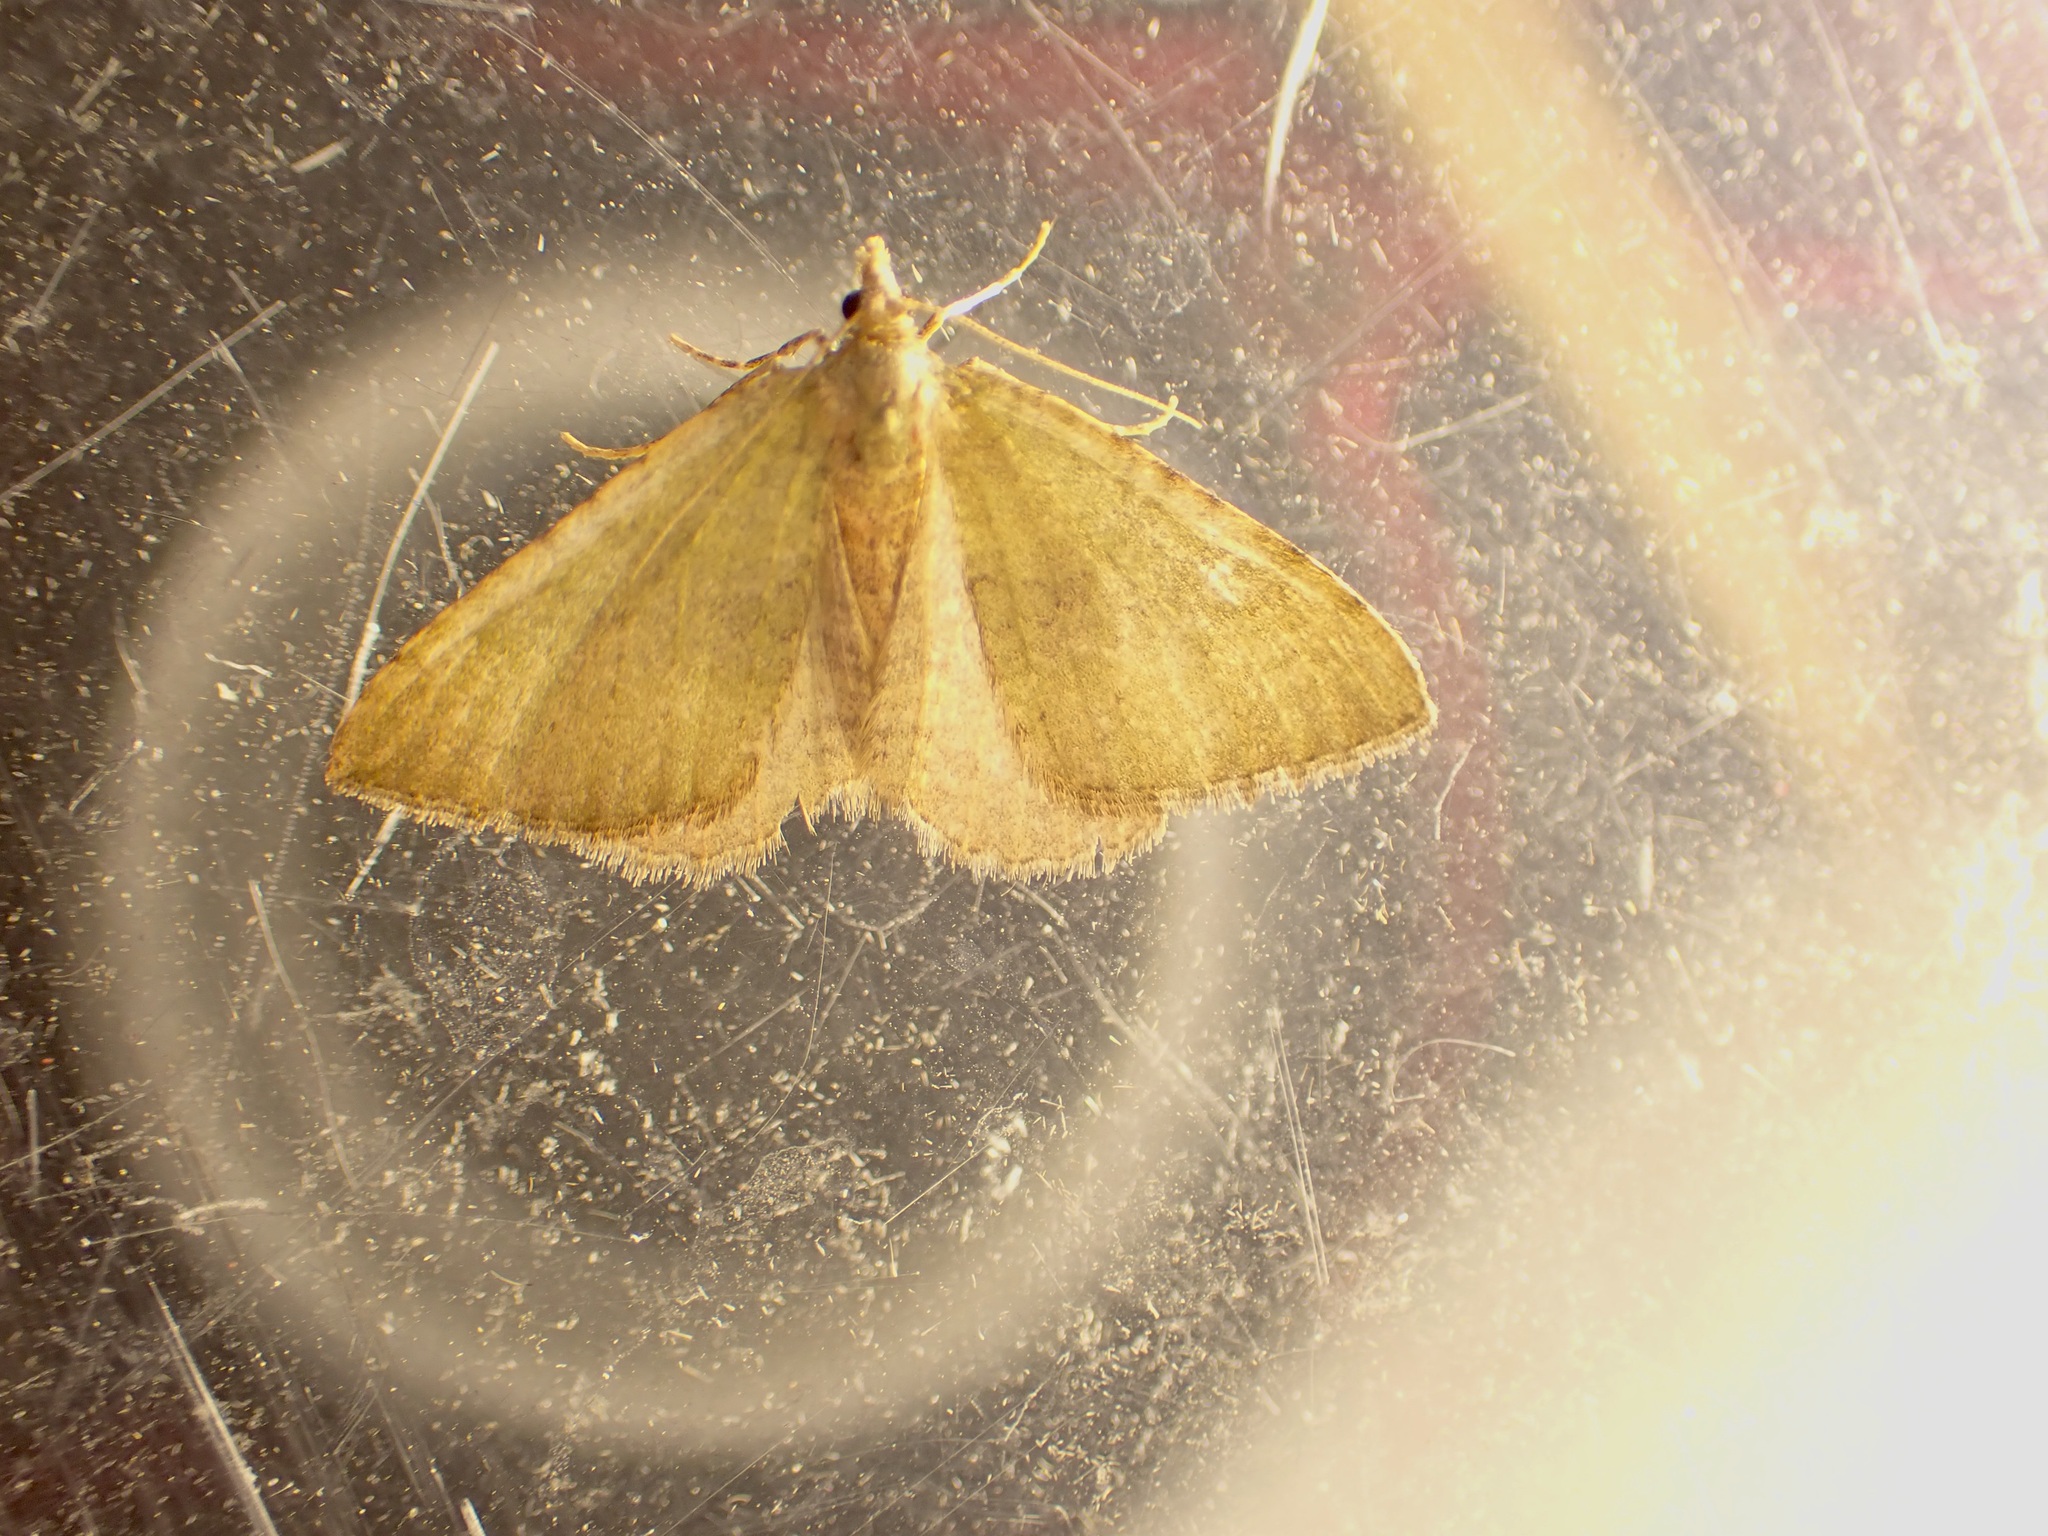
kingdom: Animalia
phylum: Arthropoda
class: Insecta
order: Lepidoptera
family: Geometridae
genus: Epyaxa
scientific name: Epyaxa rosearia
